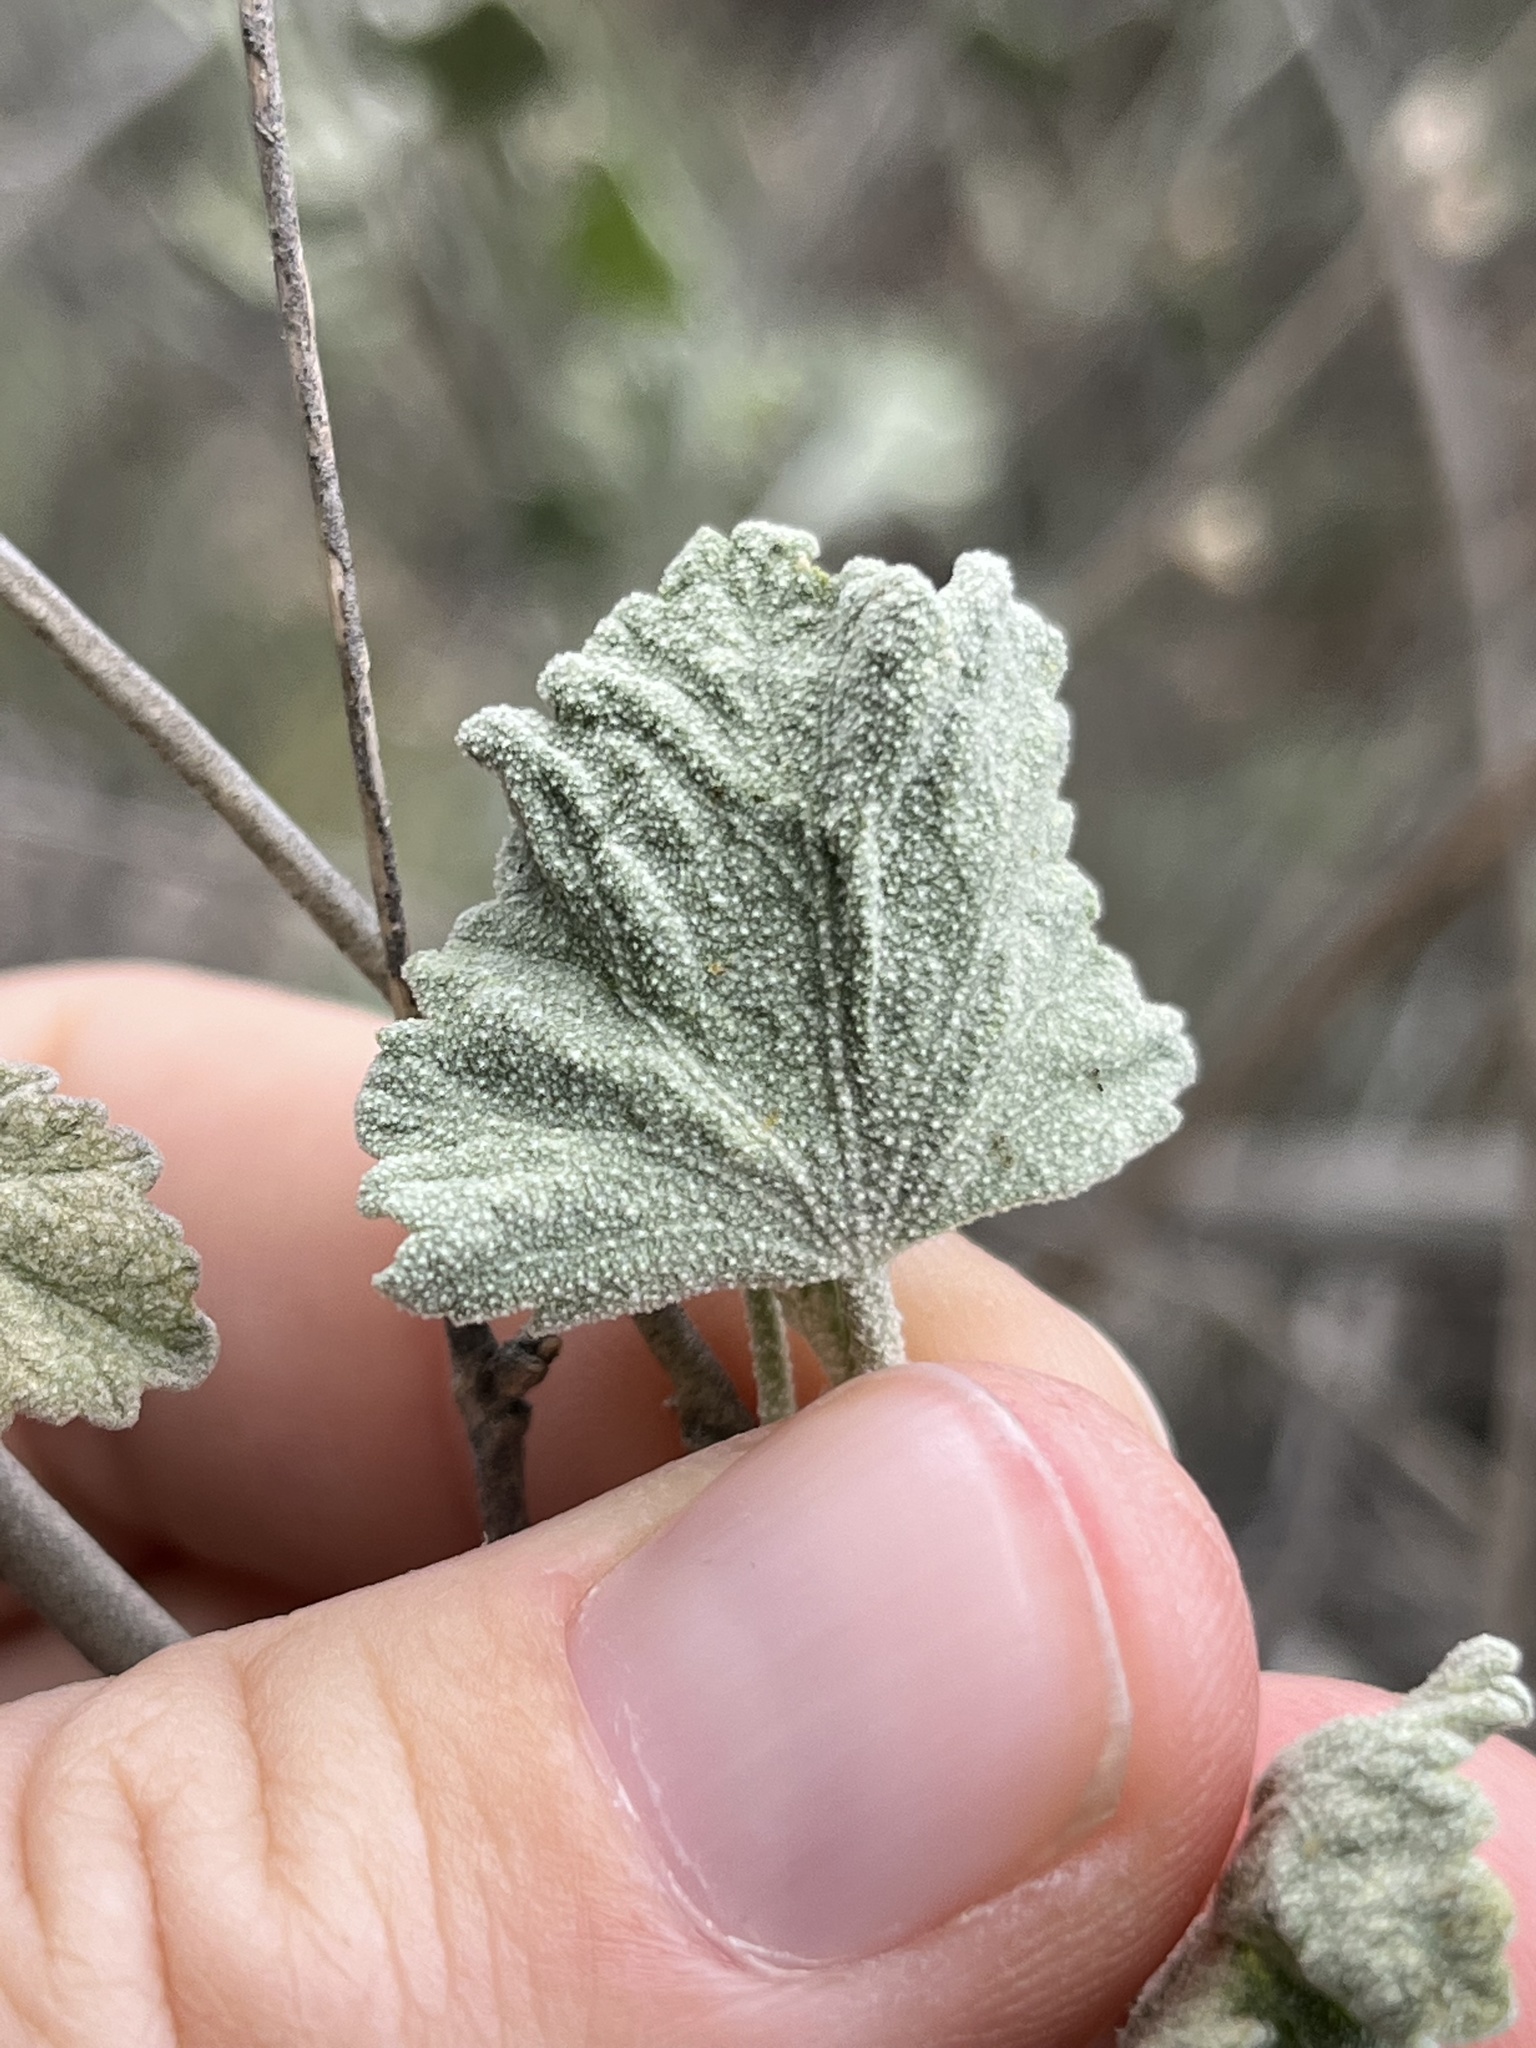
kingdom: Plantae
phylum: Tracheophyta
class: Magnoliopsida
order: Malvales
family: Malvaceae
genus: Malacothamnus
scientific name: Malacothamnus fasciculatus
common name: Sant cruz island bush-mallow
